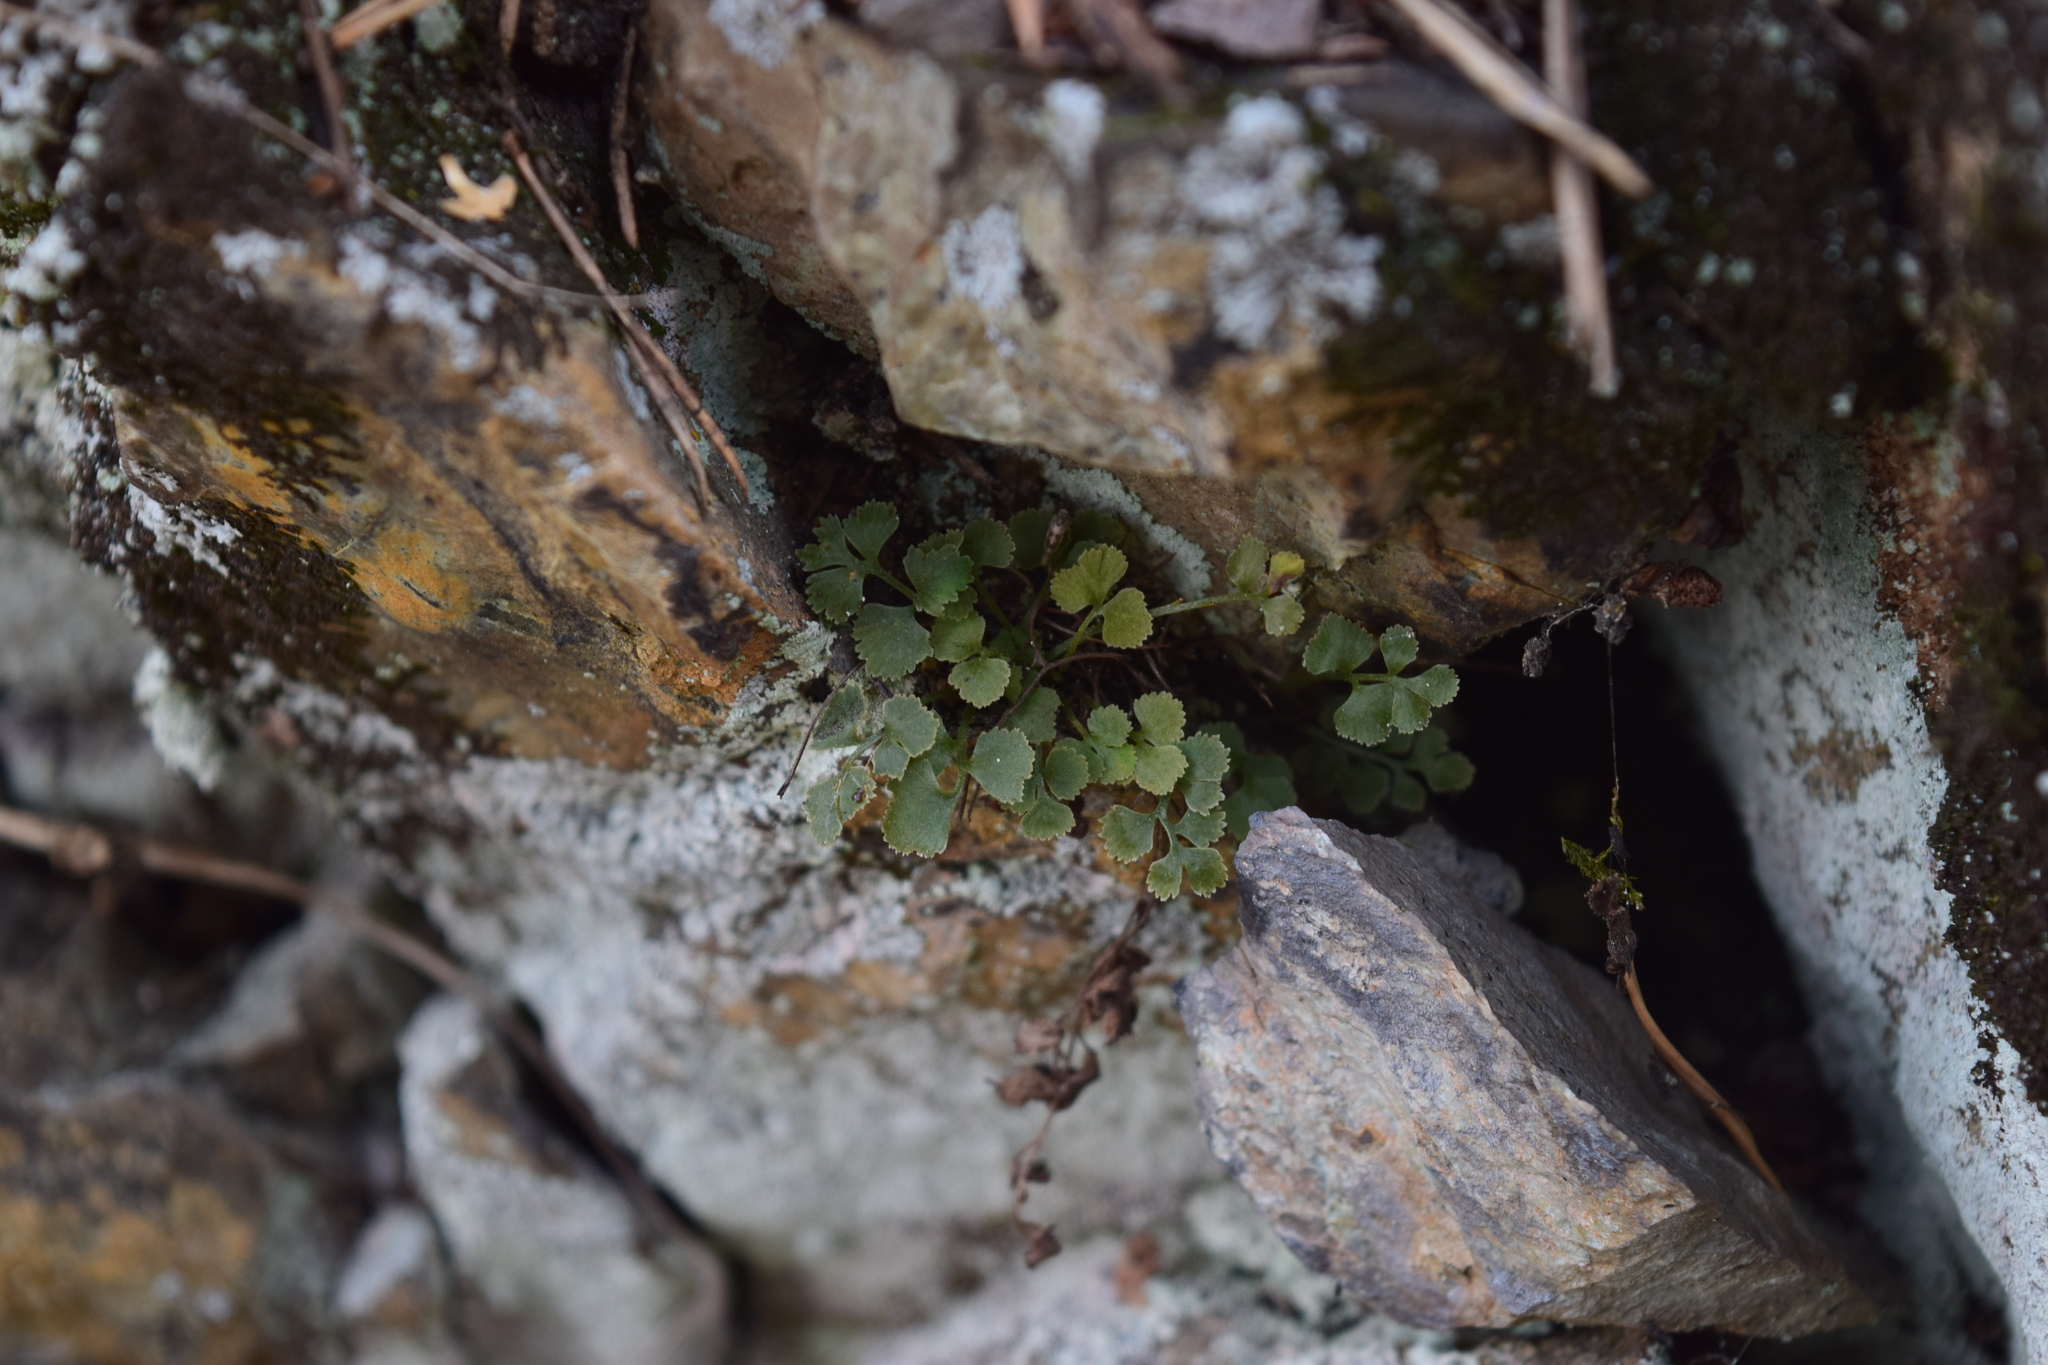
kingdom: Plantae
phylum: Tracheophyta
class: Polypodiopsida
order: Polypodiales
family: Aspleniaceae
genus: Asplenium
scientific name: Asplenium ruta-muraria
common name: Wall-rue
